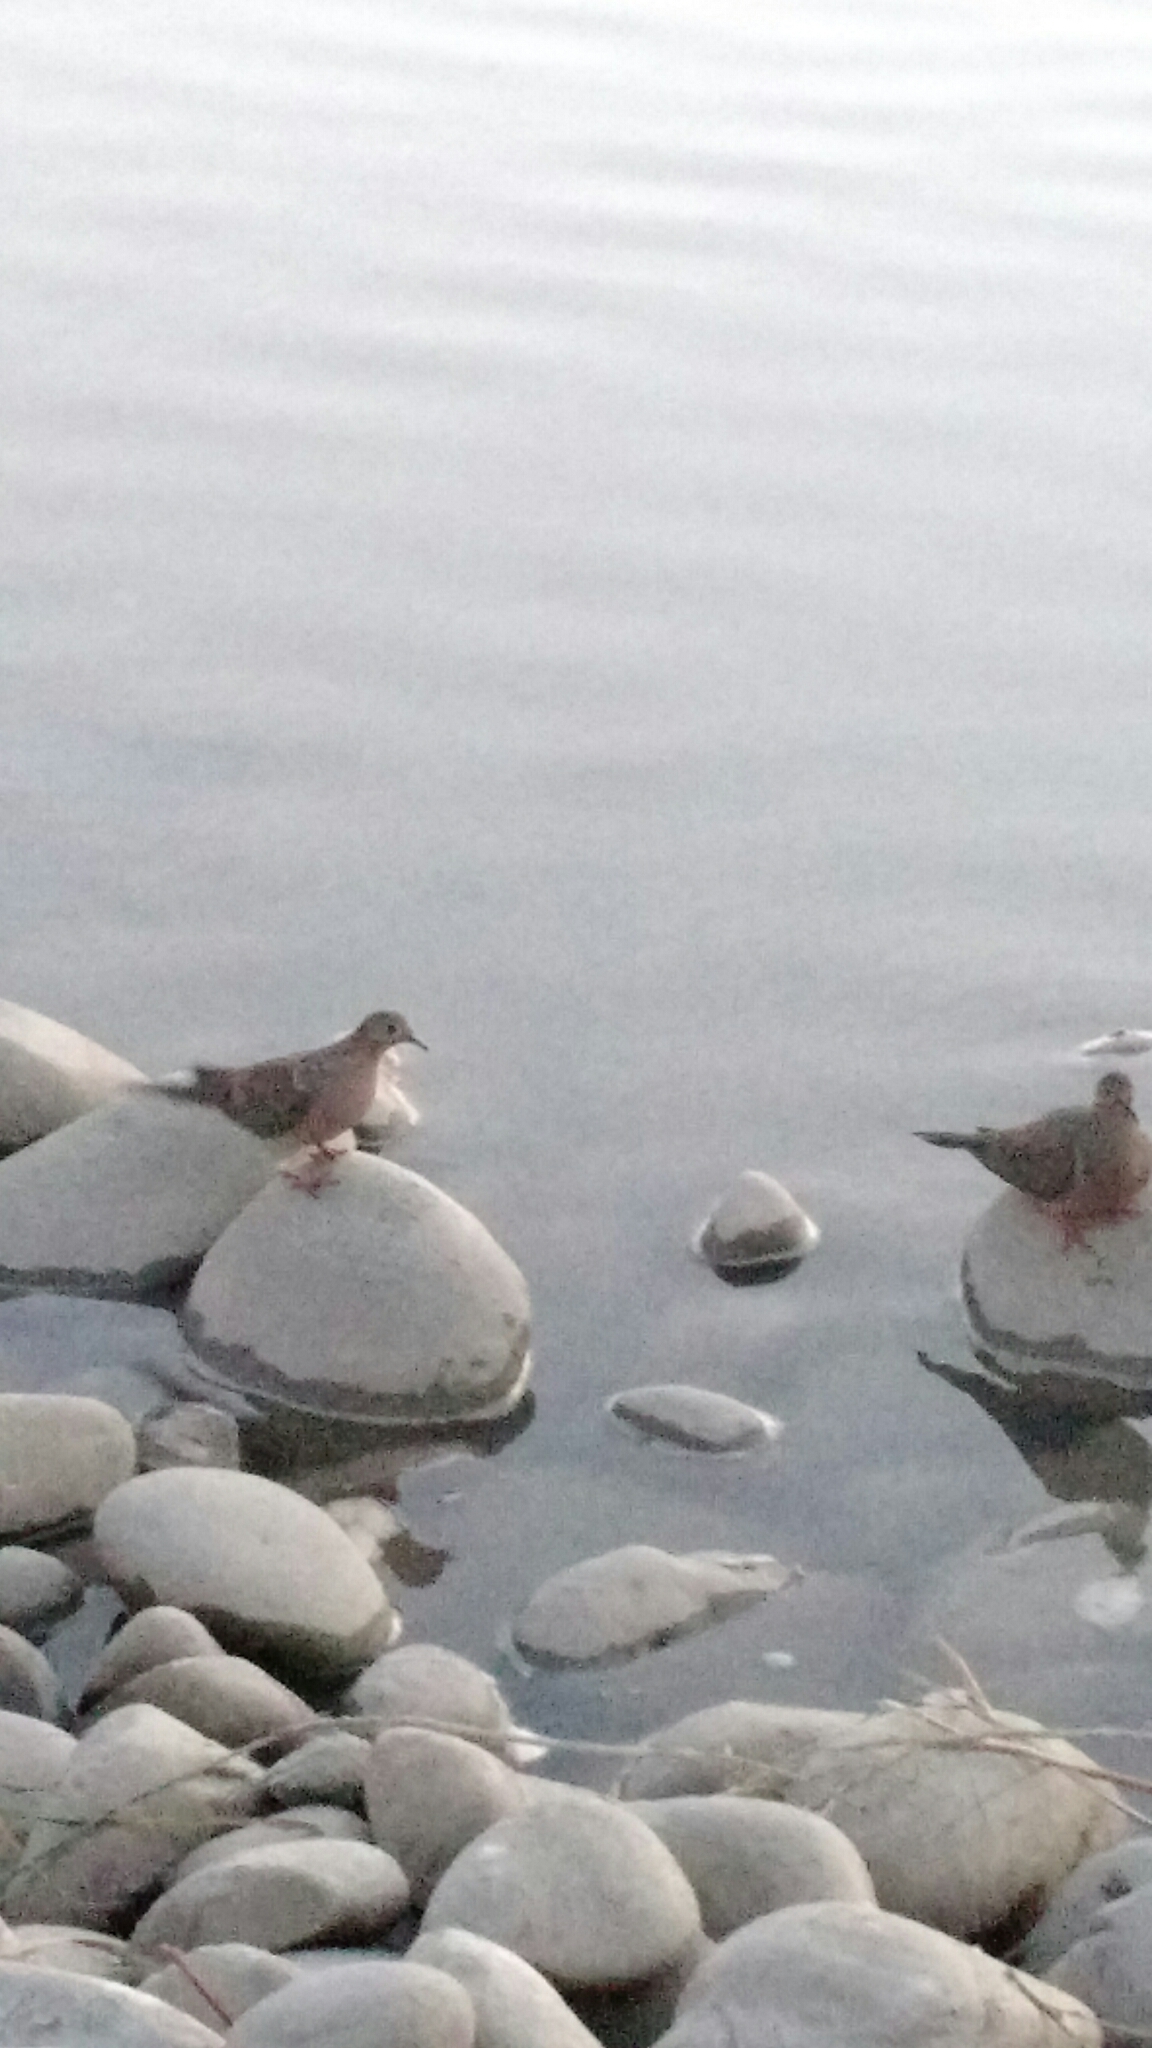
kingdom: Animalia
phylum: Chordata
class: Aves
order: Columbiformes
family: Columbidae
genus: Zenaida
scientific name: Zenaida macroura
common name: Mourning dove
